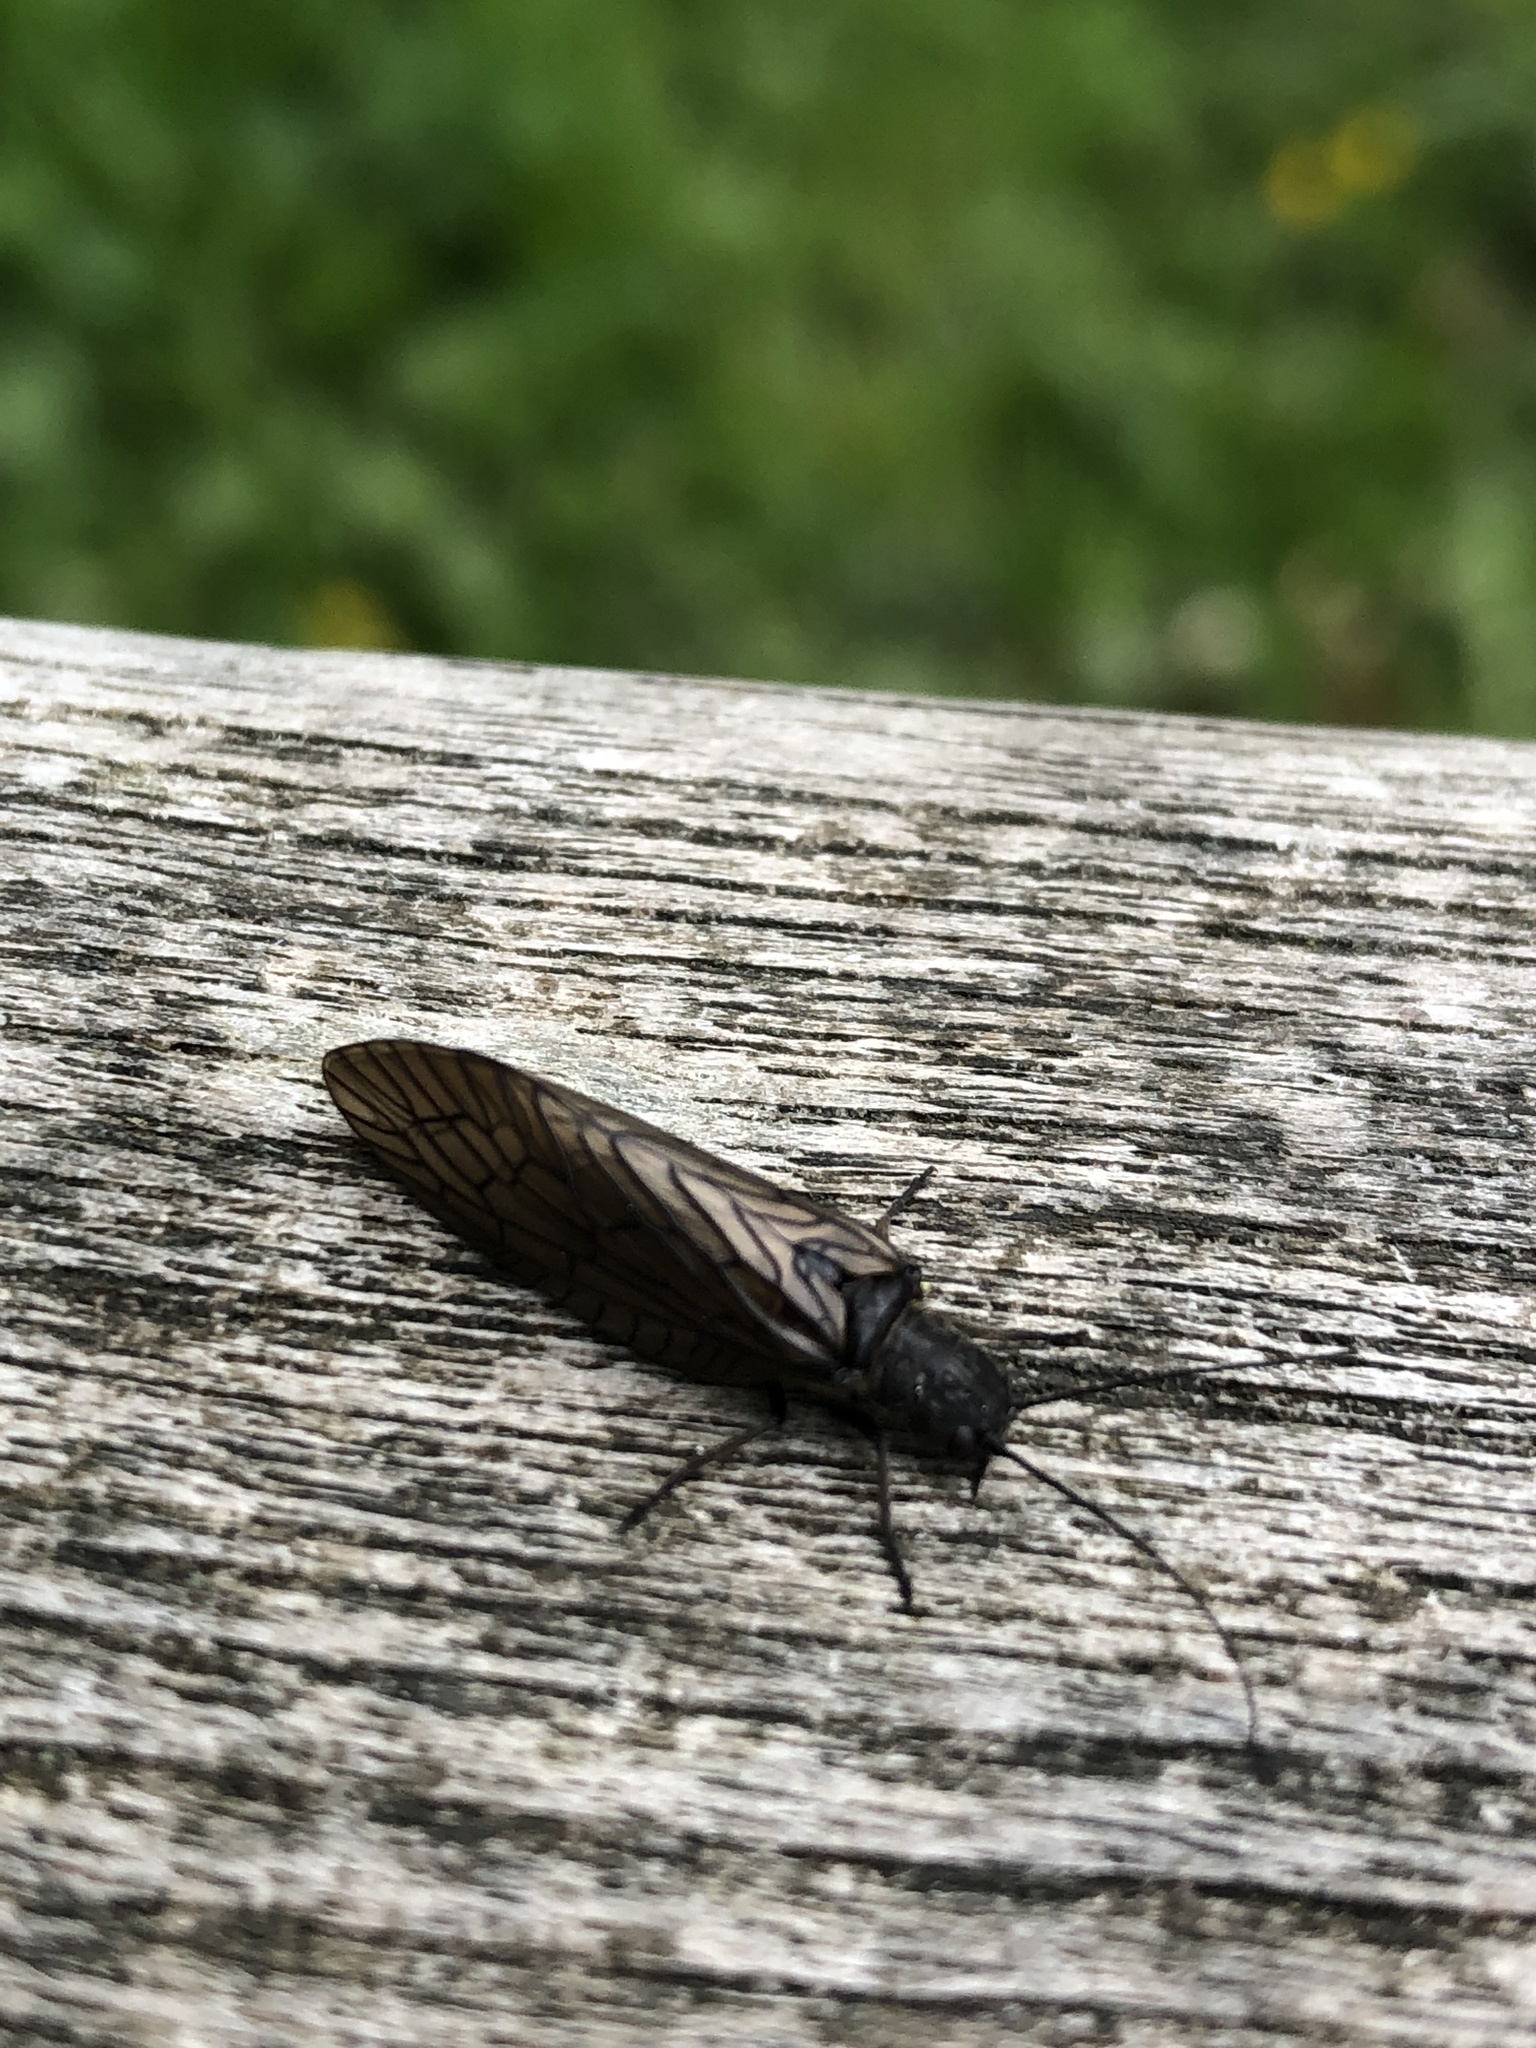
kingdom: Animalia
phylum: Arthropoda
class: Insecta
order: Megaloptera
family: Sialidae
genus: Sialis
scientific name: Sialis
